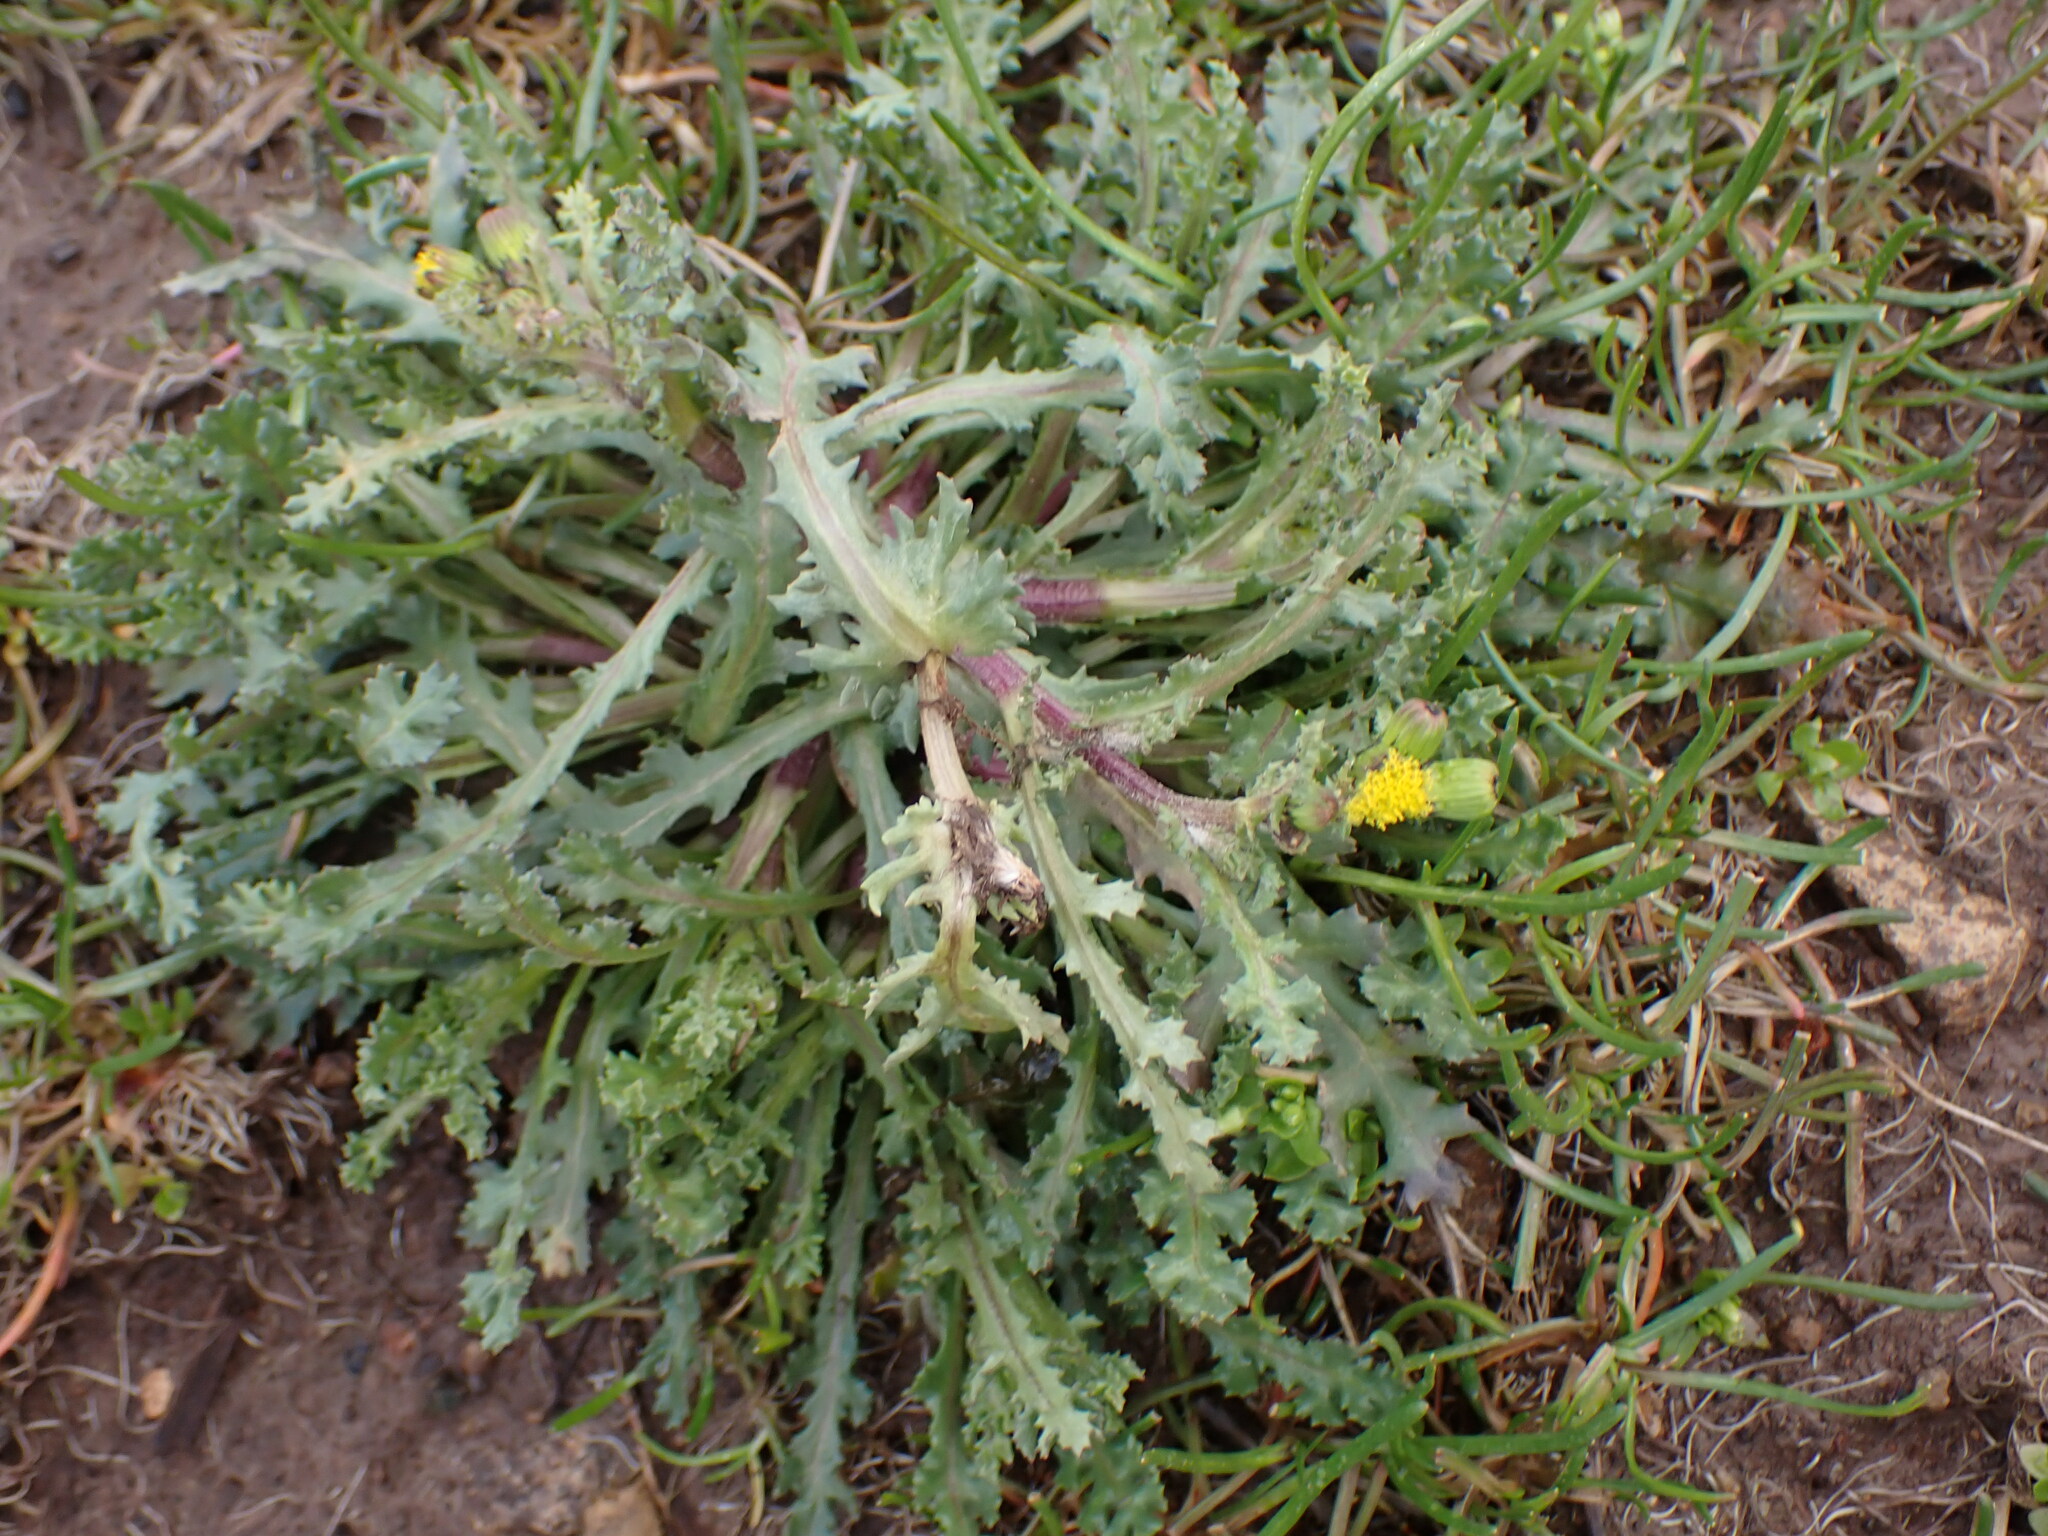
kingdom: Plantae
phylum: Tracheophyta
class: Magnoliopsida
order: Asterales
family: Asteraceae
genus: Senecio
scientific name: Senecio vulgaris
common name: Old-man-in-the-spring
